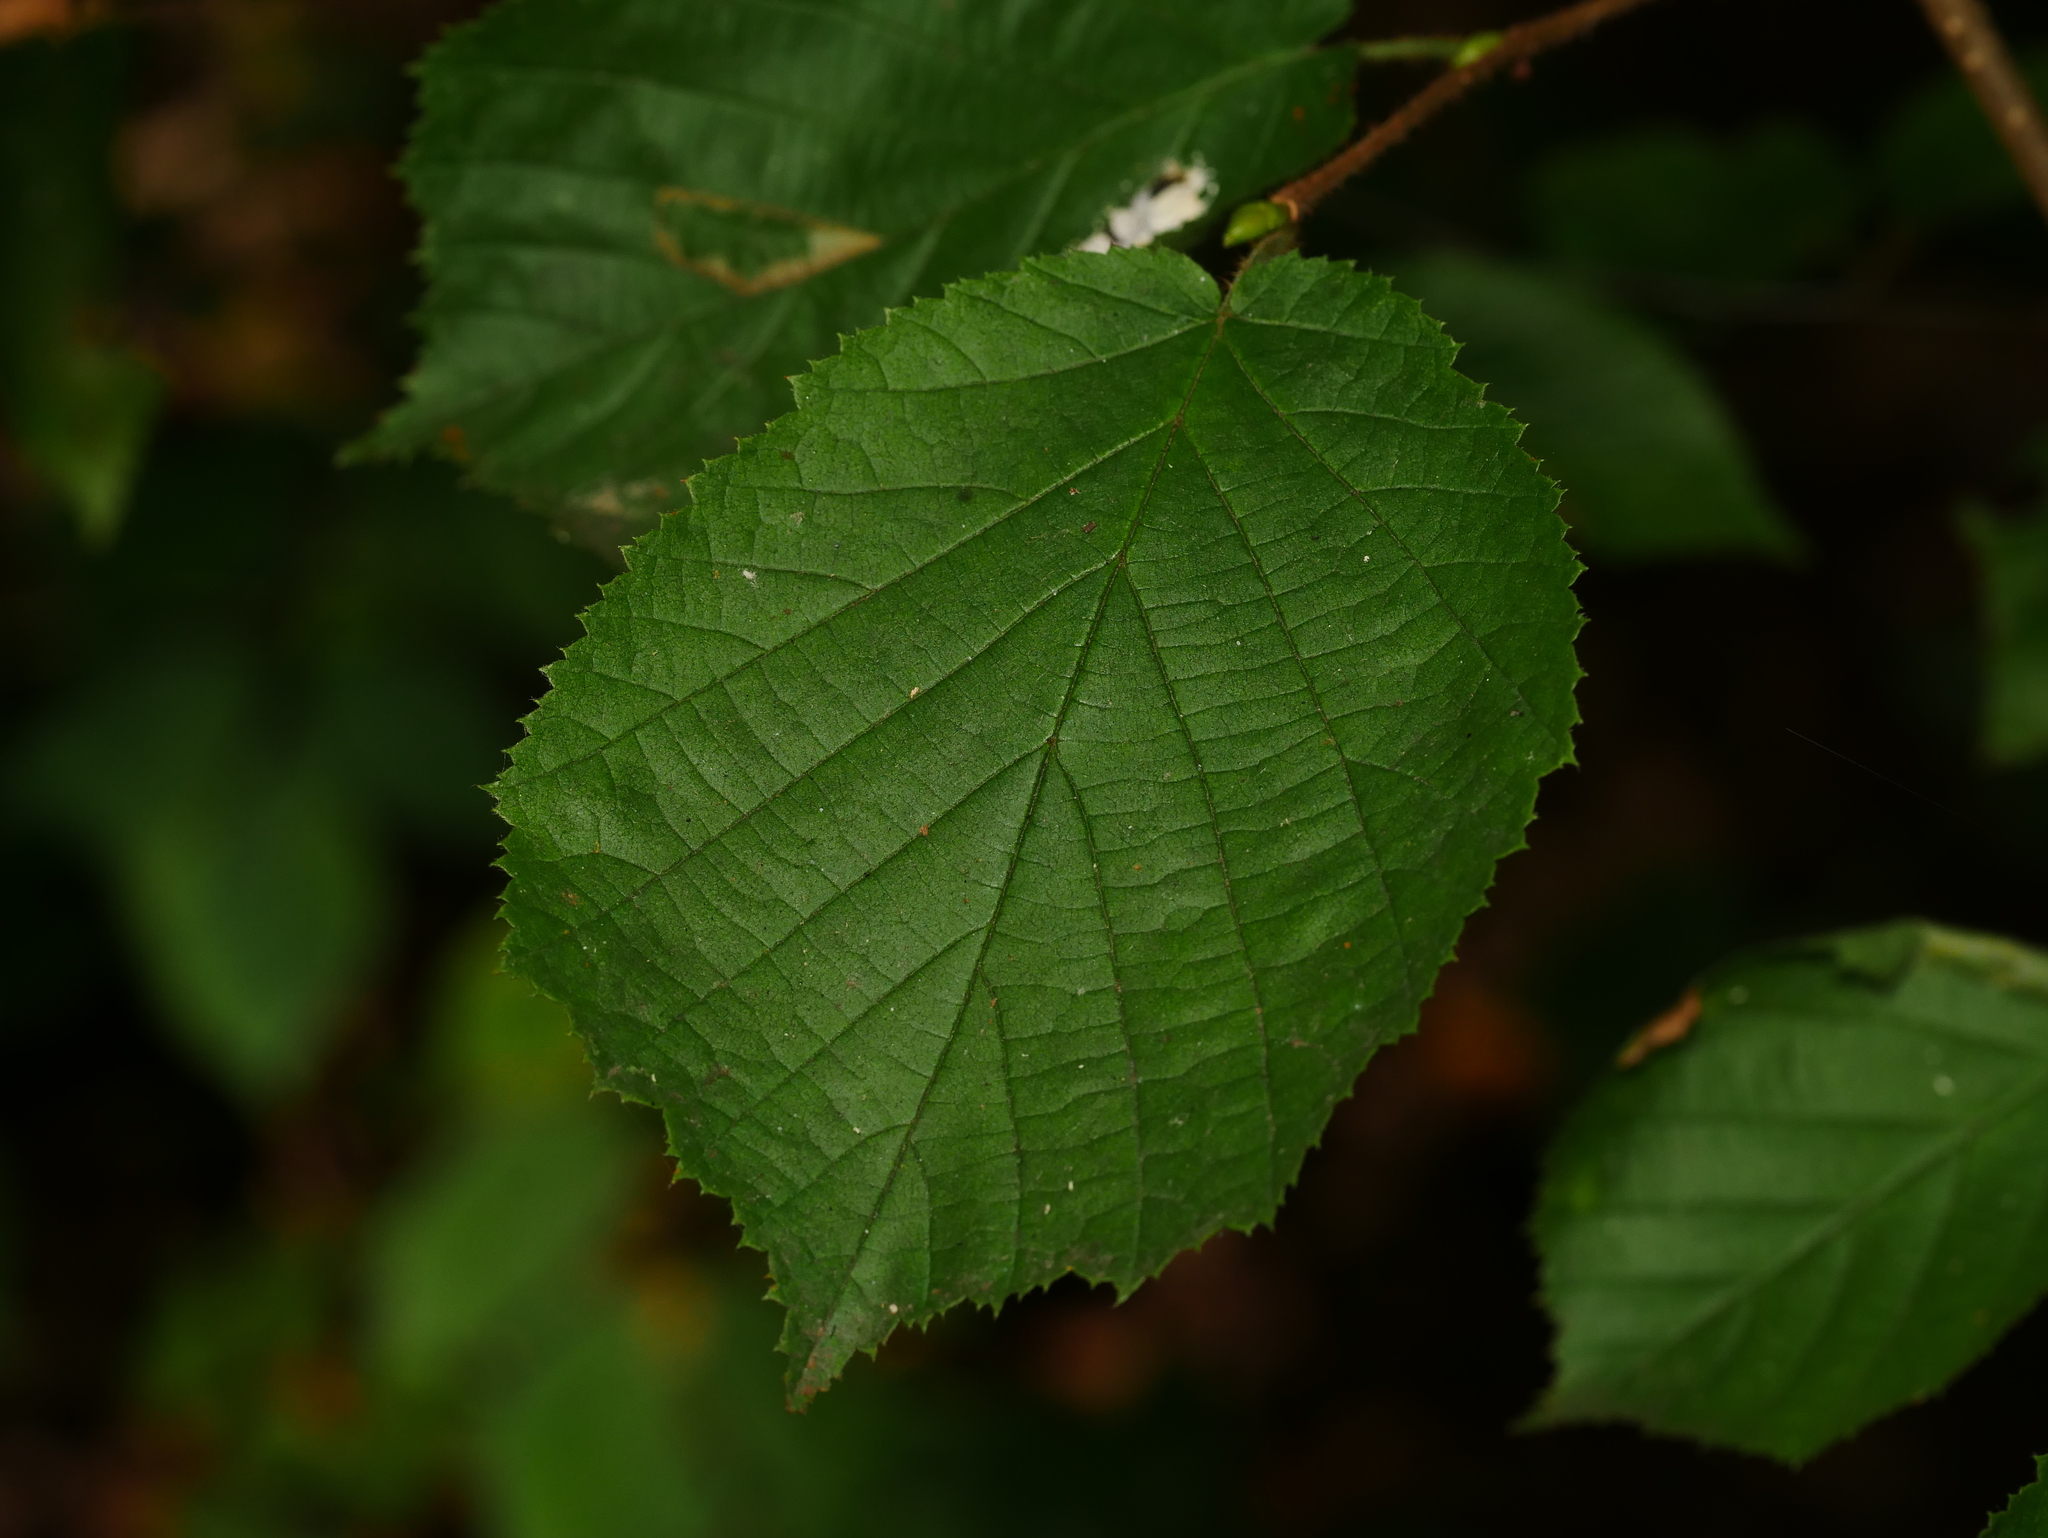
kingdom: Plantae
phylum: Tracheophyta
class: Magnoliopsida
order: Fagales
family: Betulaceae
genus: Corylus
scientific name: Corylus avellana
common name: European hazel
